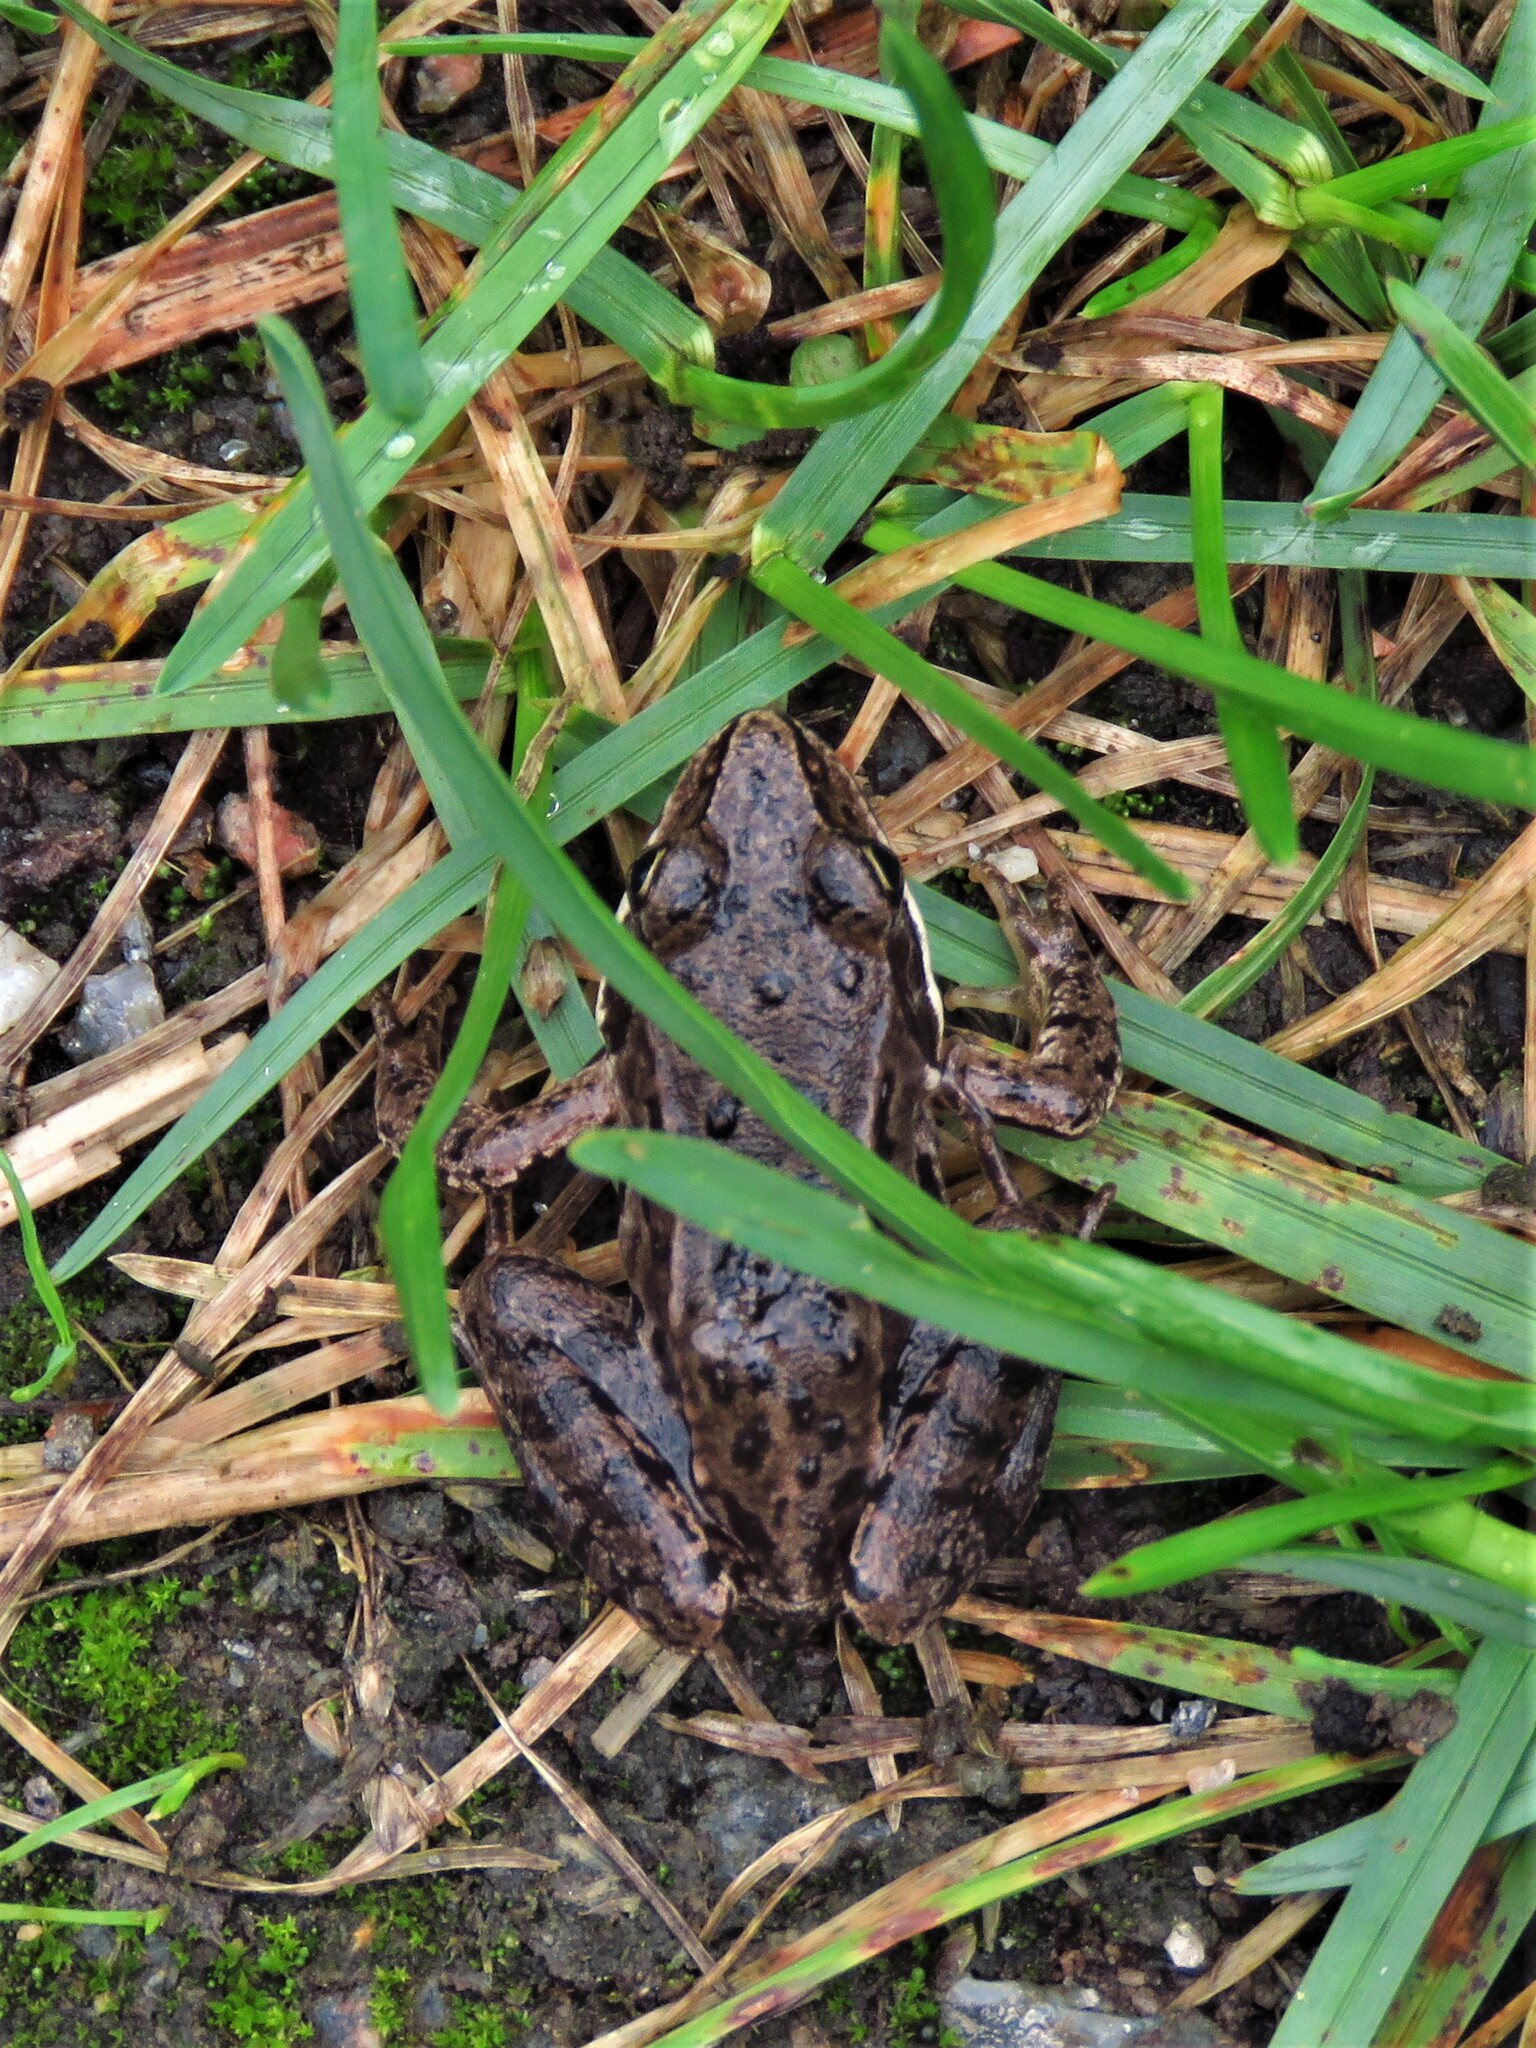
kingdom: Animalia
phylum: Chordata
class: Amphibia
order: Anura
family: Ranidae
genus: Rana
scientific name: Rana temporaria
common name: Common frog
